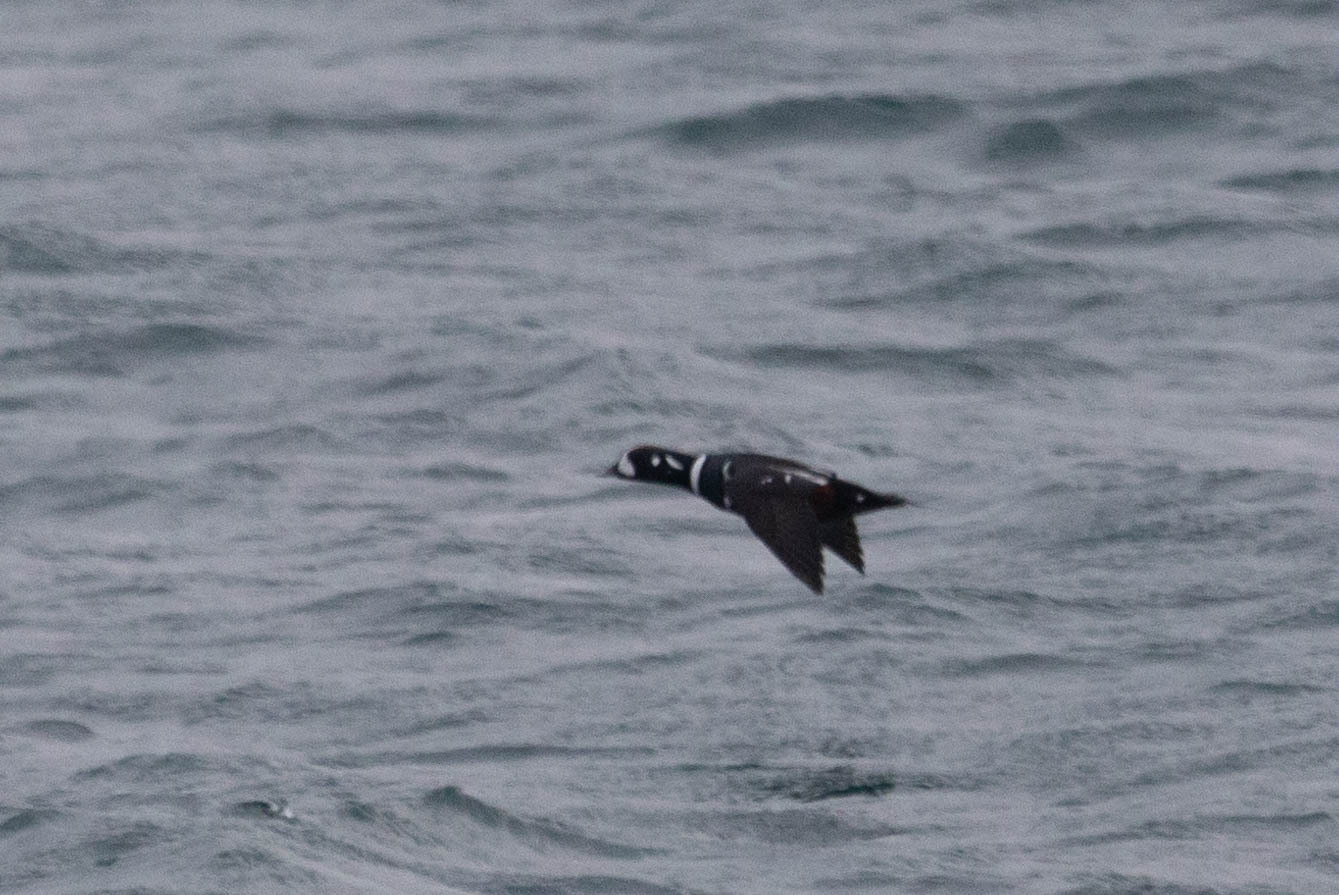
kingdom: Animalia
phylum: Chordata
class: Aves
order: Anseriformes
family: Anatidae
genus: Histrionicus
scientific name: Histrionicus histrionicus
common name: Harlequin duck
